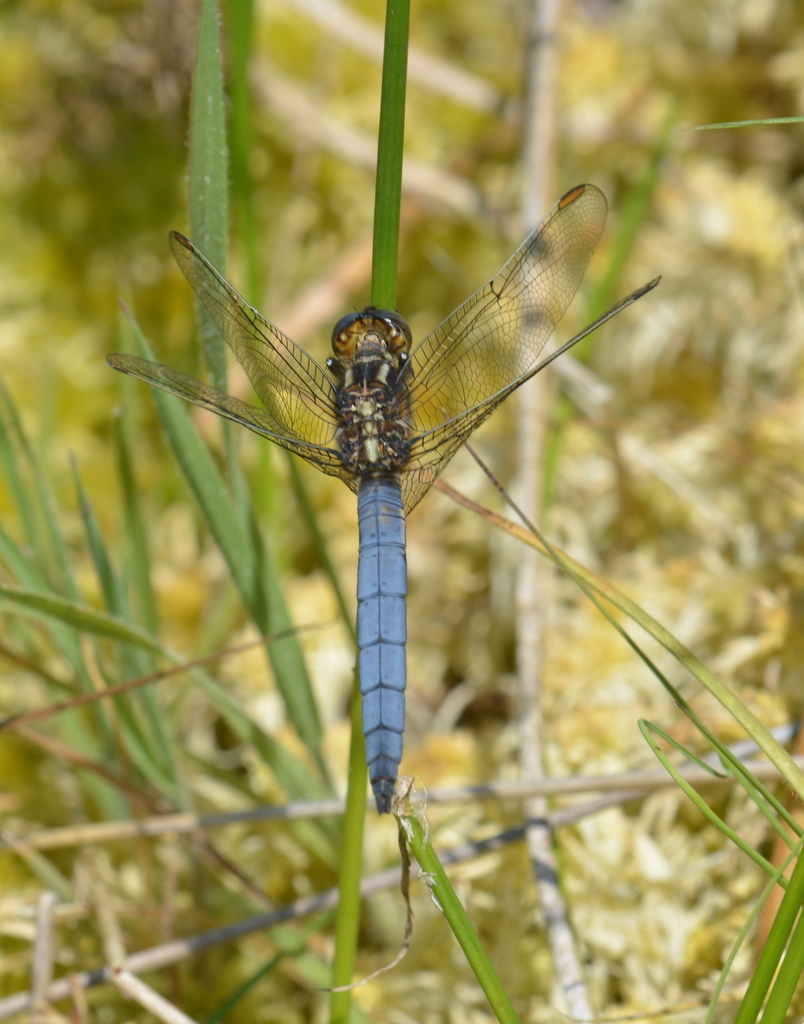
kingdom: Animalia
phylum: Arthropoda
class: Insecta
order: Odonata
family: Libellulidae
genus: Orthetrum
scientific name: Orthetrum coerulescens
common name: Keeled skimmer
